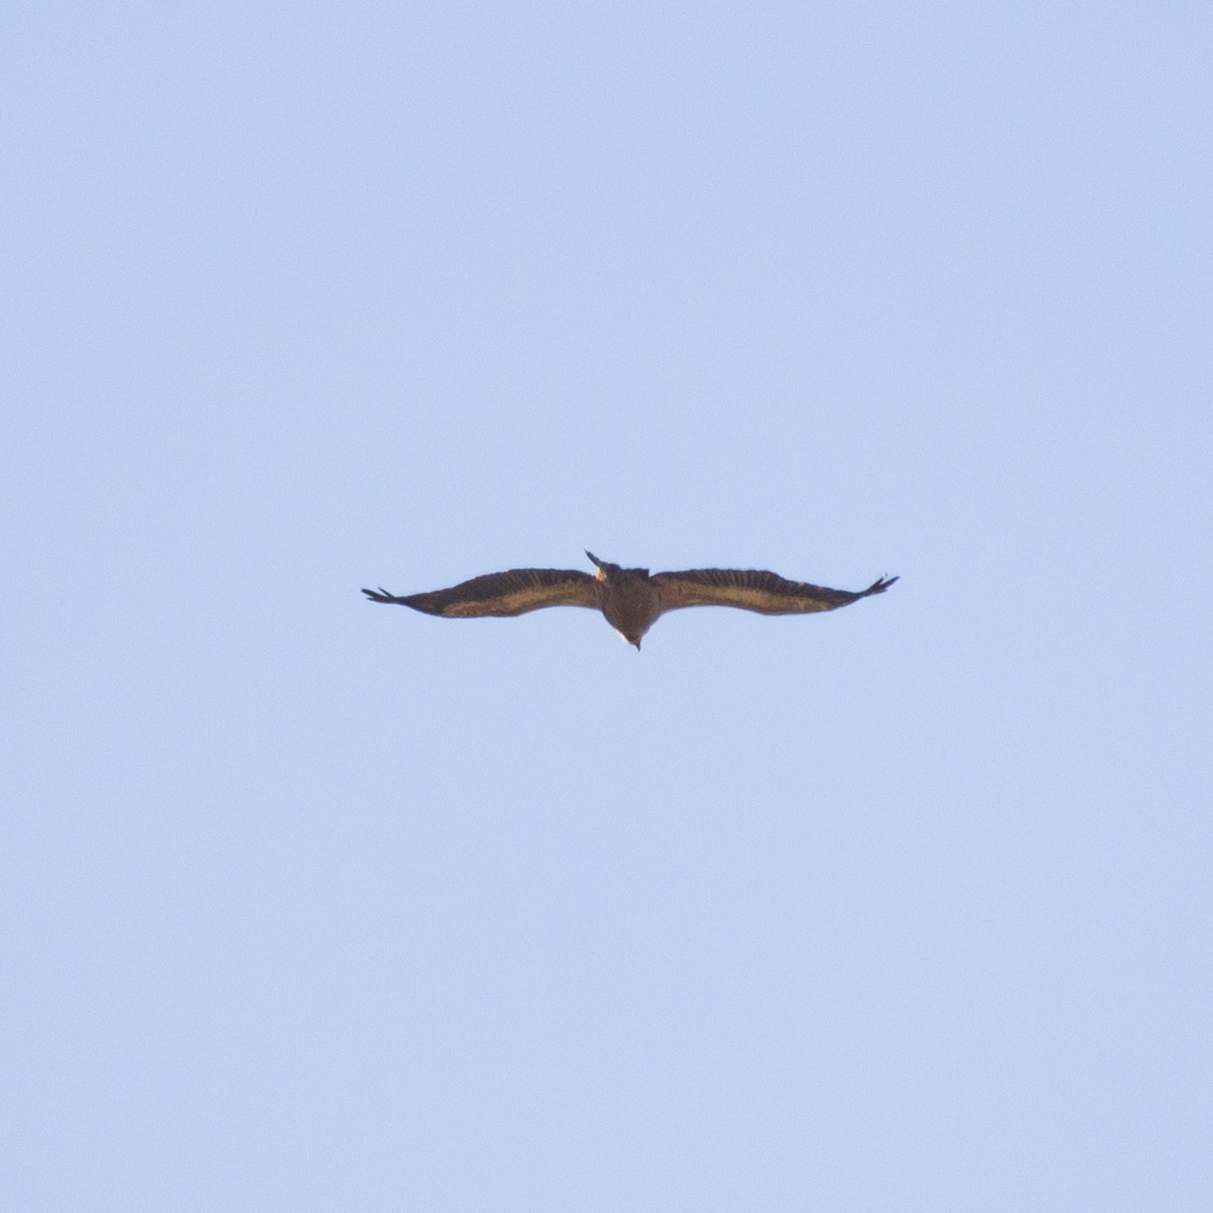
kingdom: Animalia
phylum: Chordata
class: Aves
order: Accipitriformes
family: Accipitridae
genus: Gyps
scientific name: Gyps fulvus
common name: Griffon vulture
